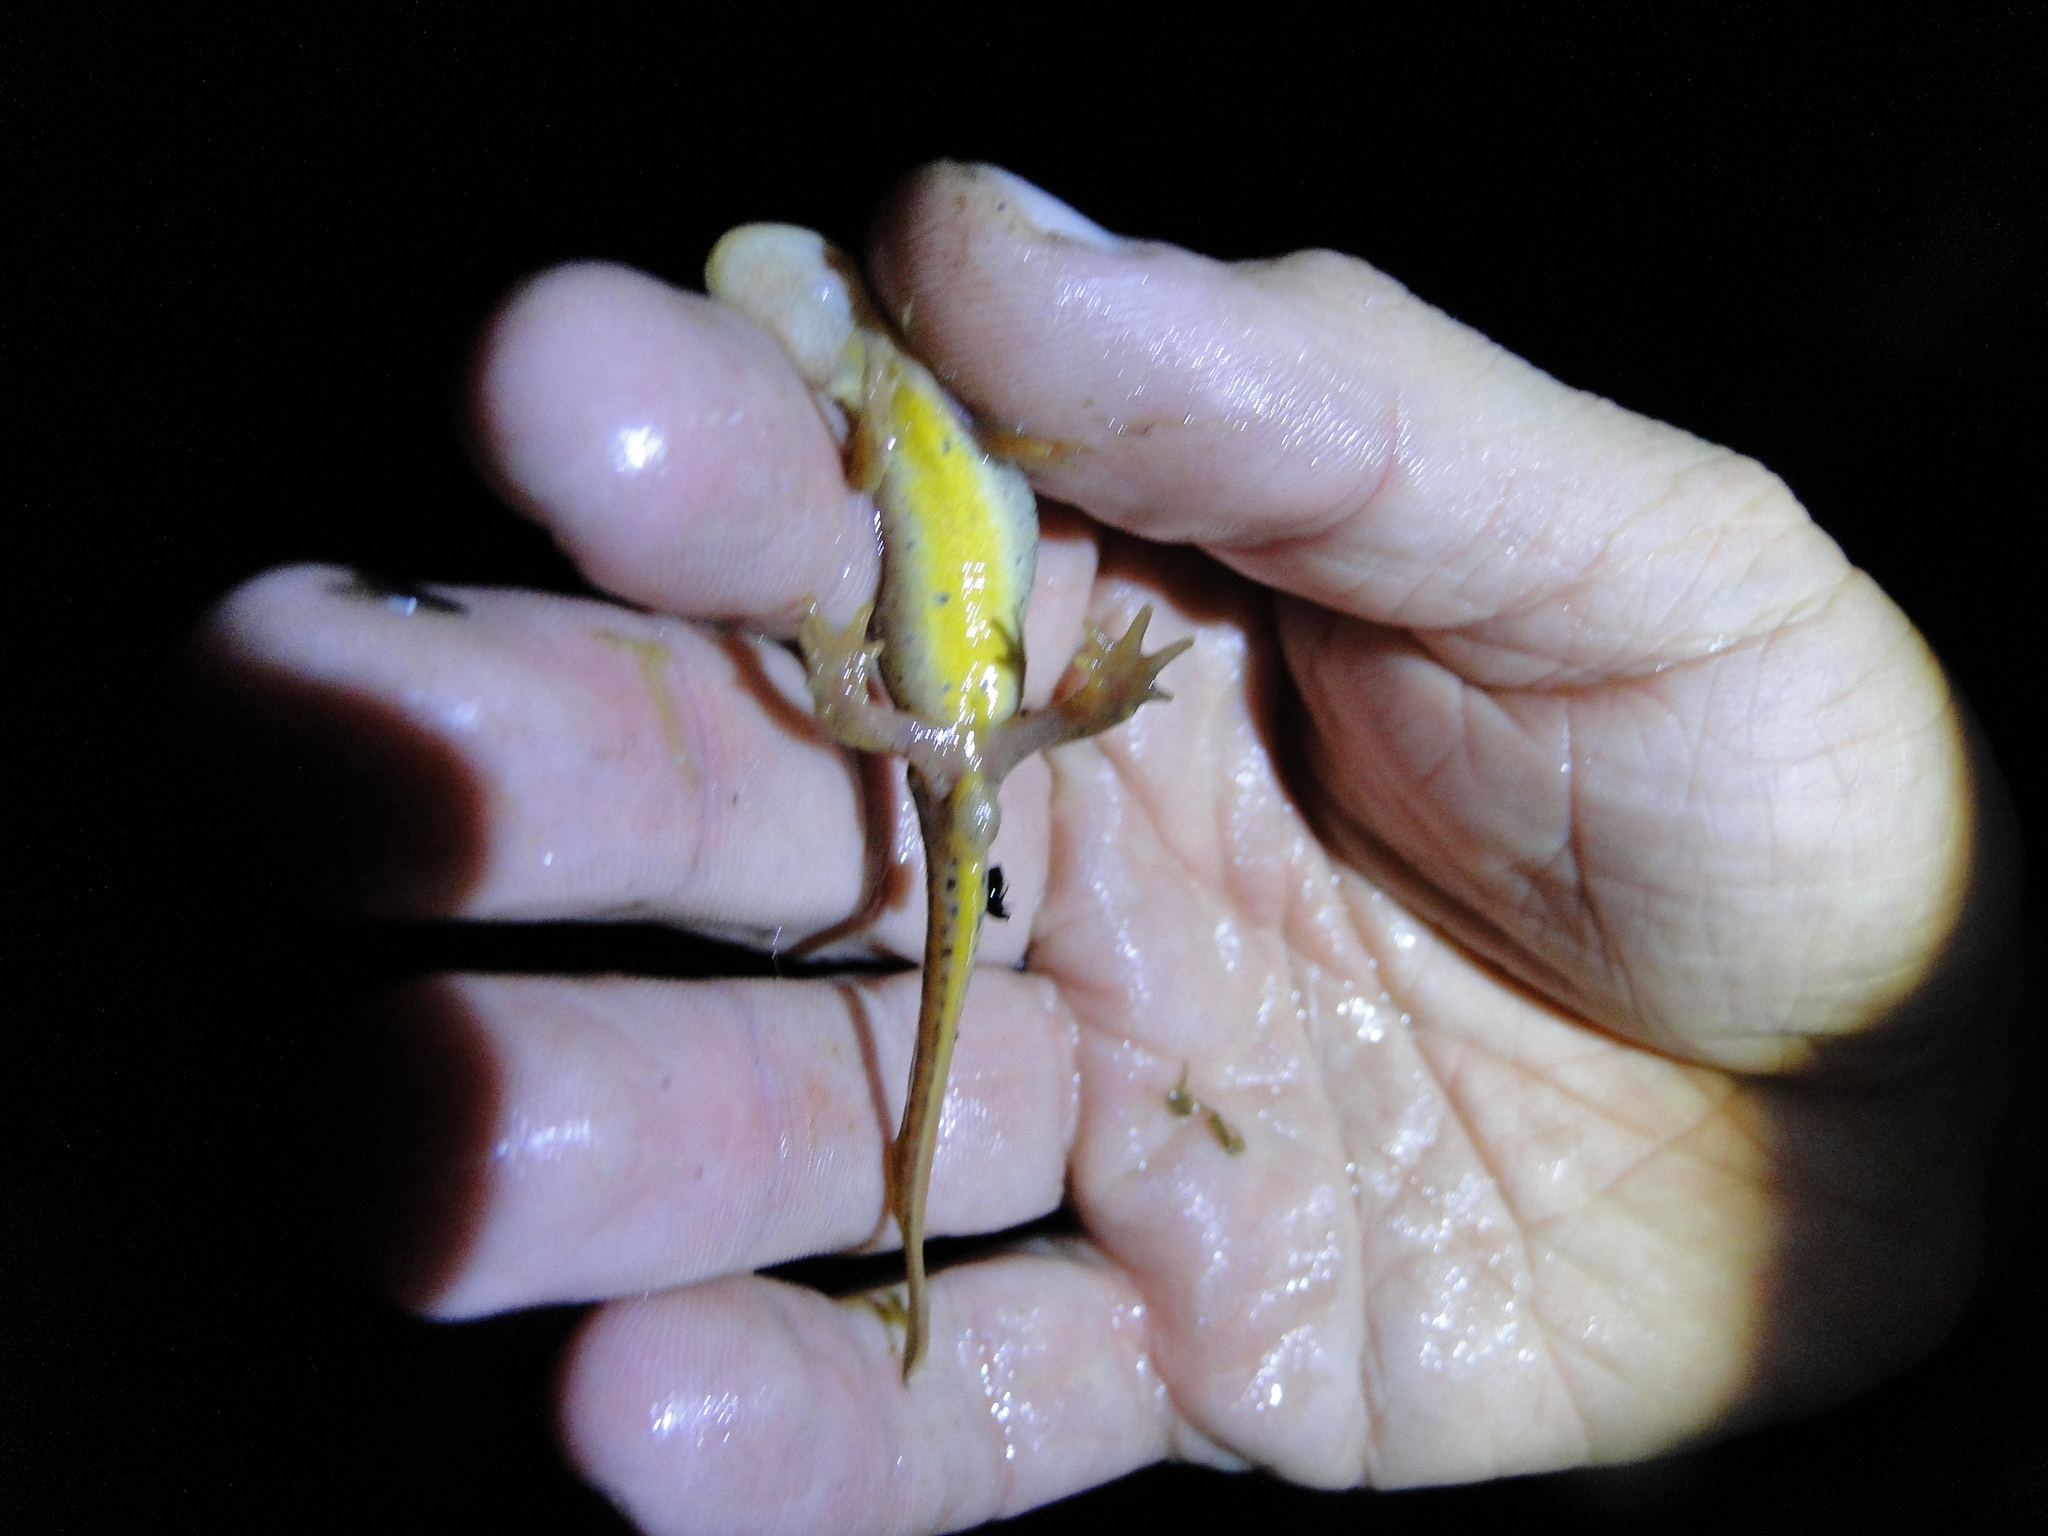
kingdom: Animalia
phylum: Chordata
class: Amphibia
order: Caudata
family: Salamandridae
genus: Lissotriton
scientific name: Lissotriton helveticus
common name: Palmate newt
